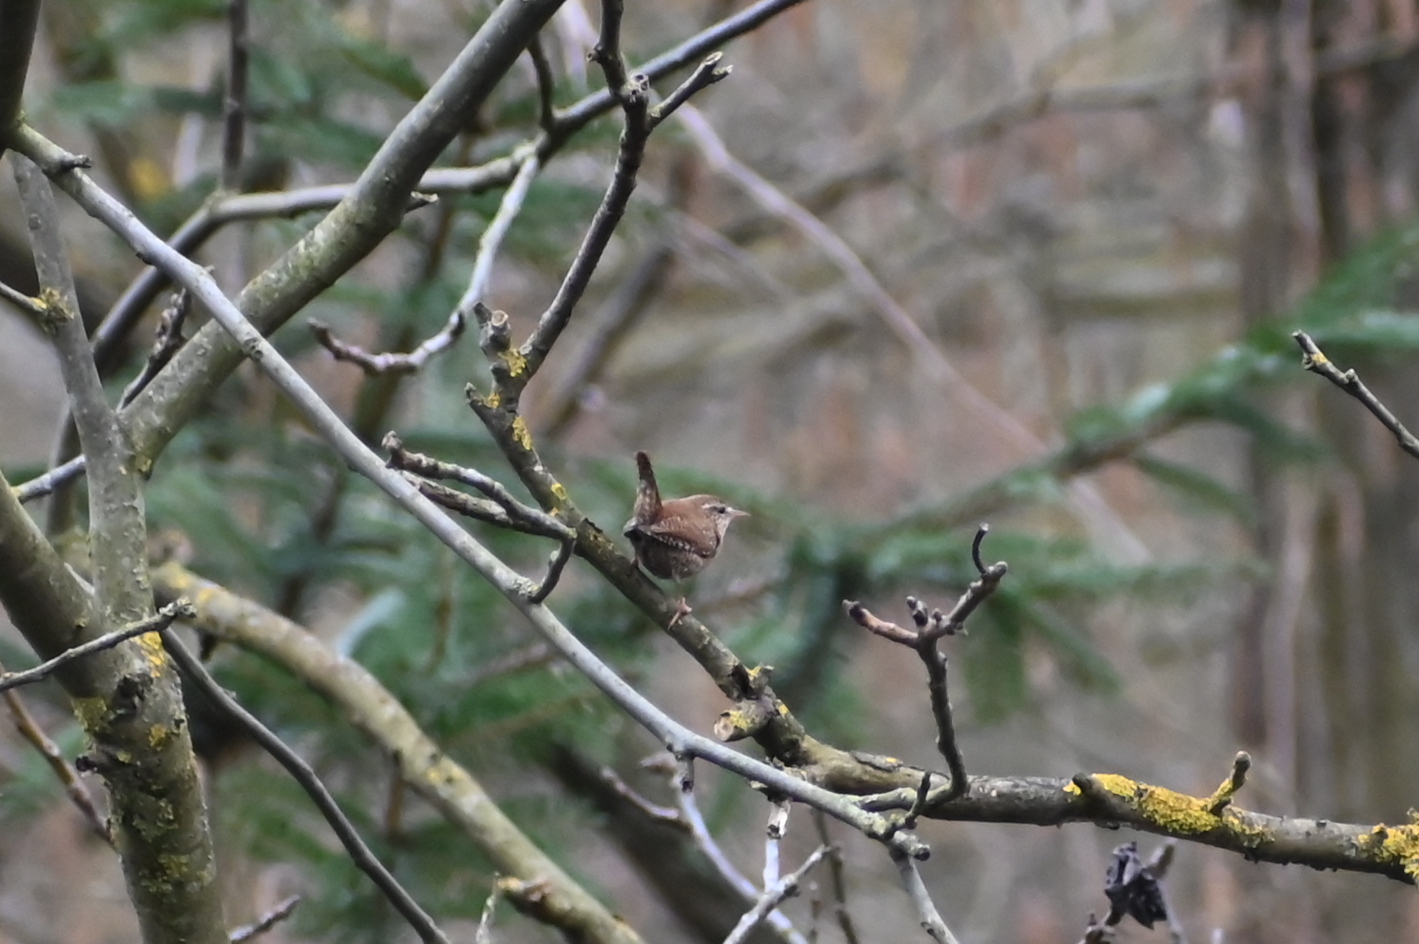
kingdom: Animalia
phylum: Chordata
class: Aves
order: Passeriformes
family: Troglodytidae
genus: Troglodytes
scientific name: Troglodytes troglodytes
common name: Eurasian wren
